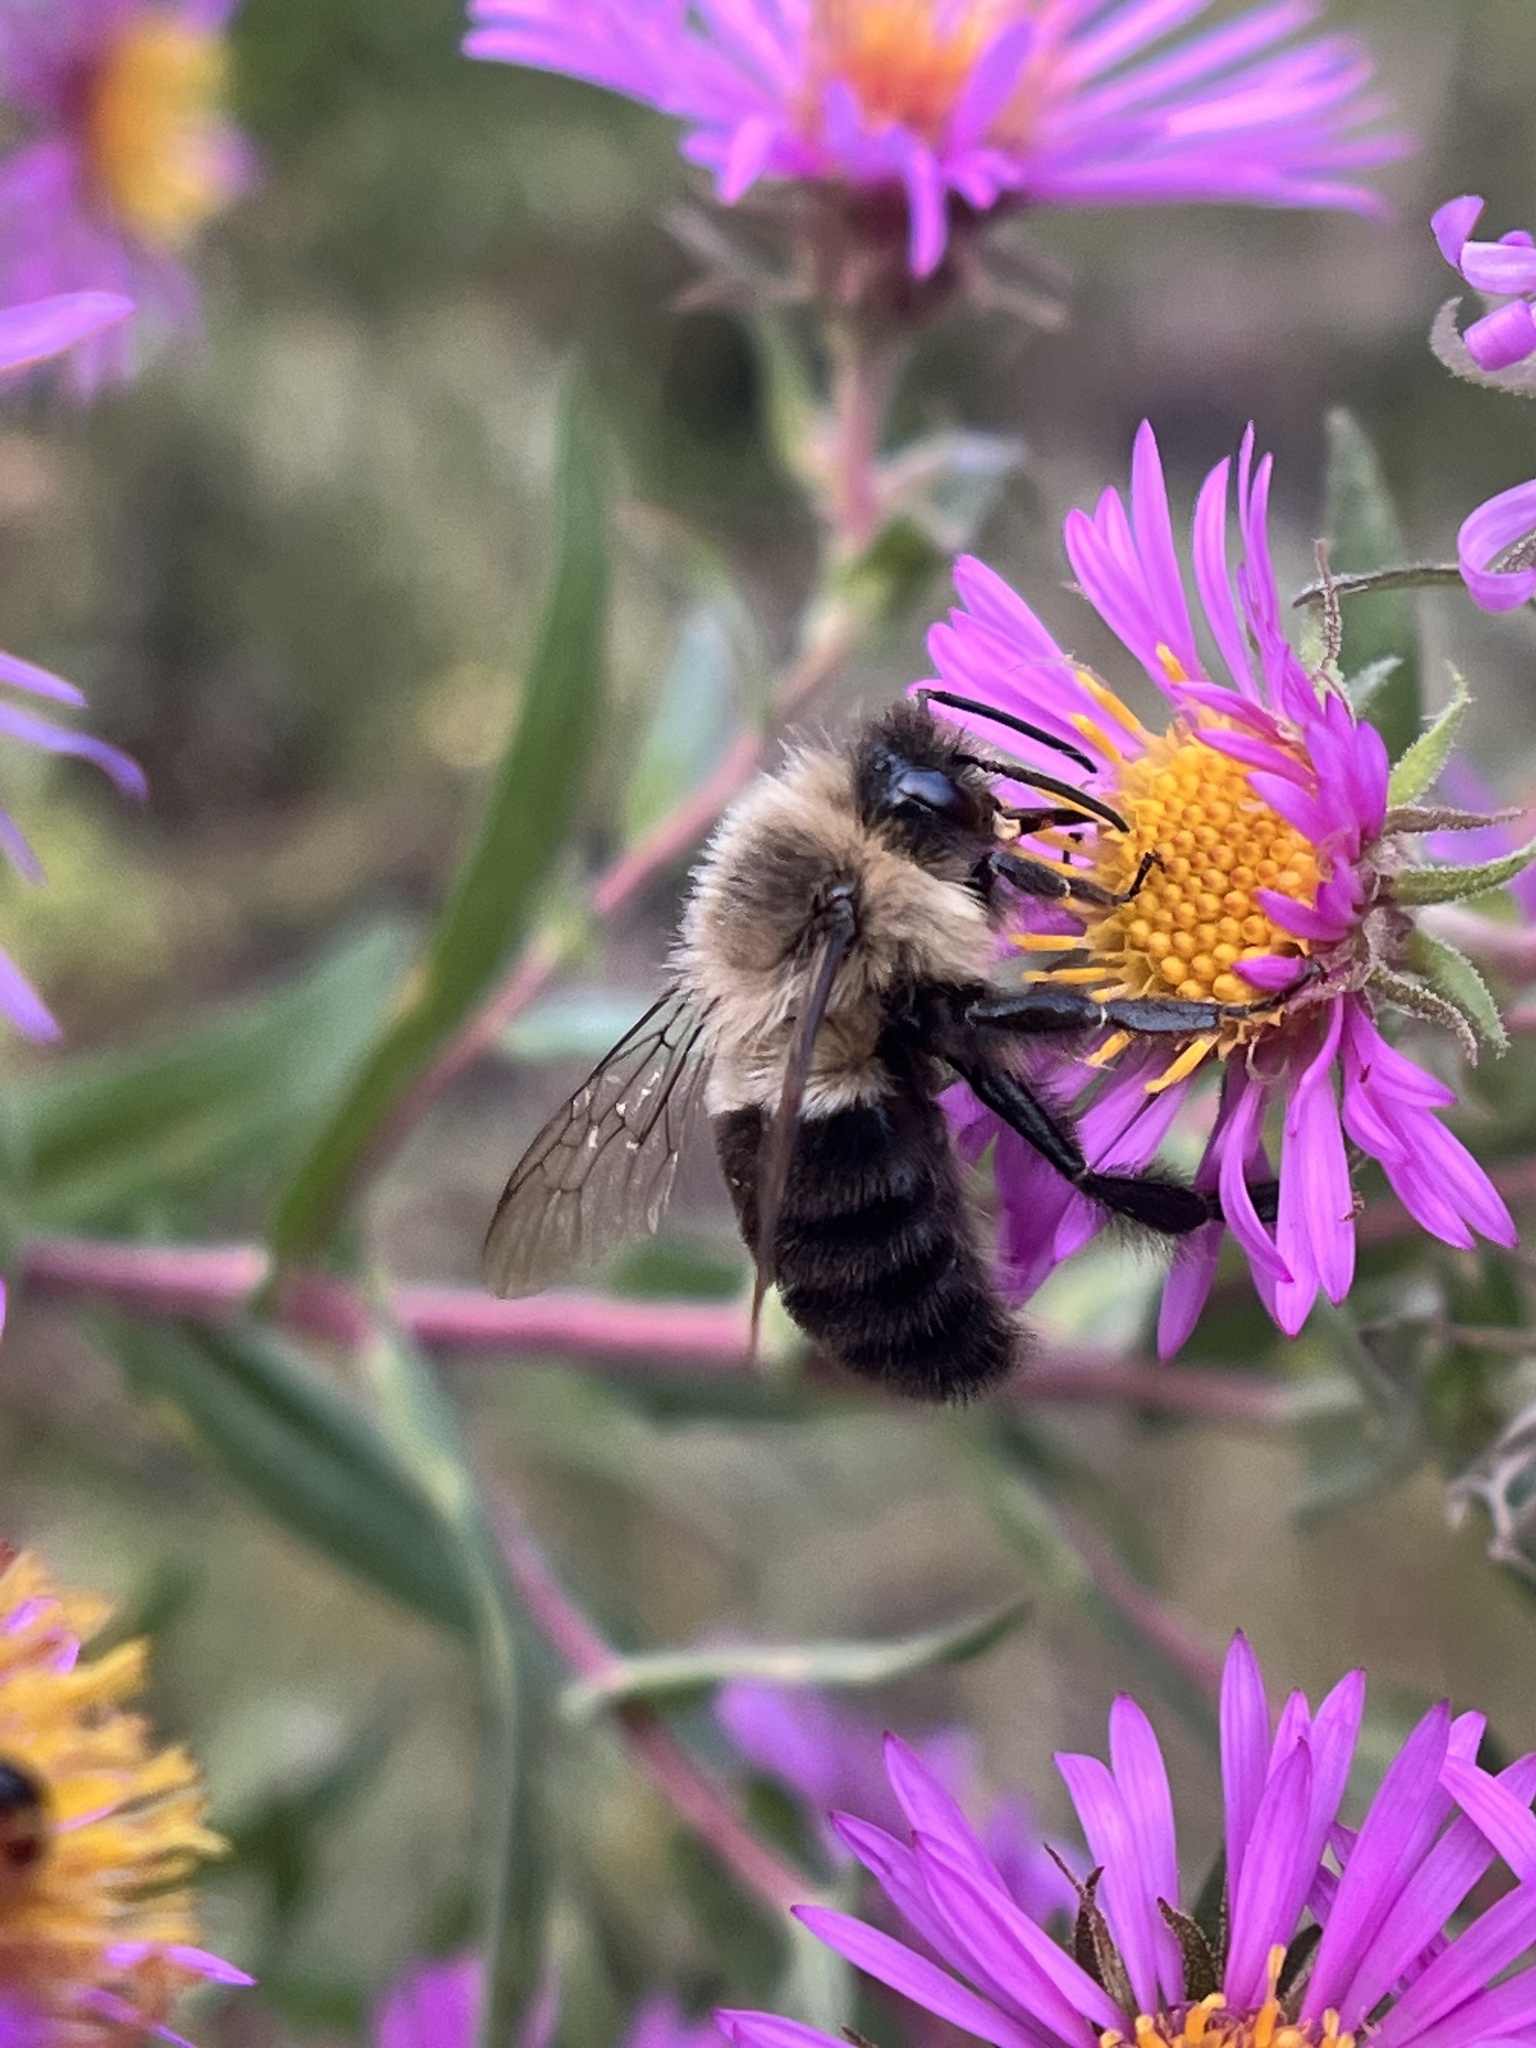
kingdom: Animalia
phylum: Arthropoda
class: Insecta
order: Hymenoptera
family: Apidae
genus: Bombus
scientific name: Bombus impatiens
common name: Common eastern bumble bee
